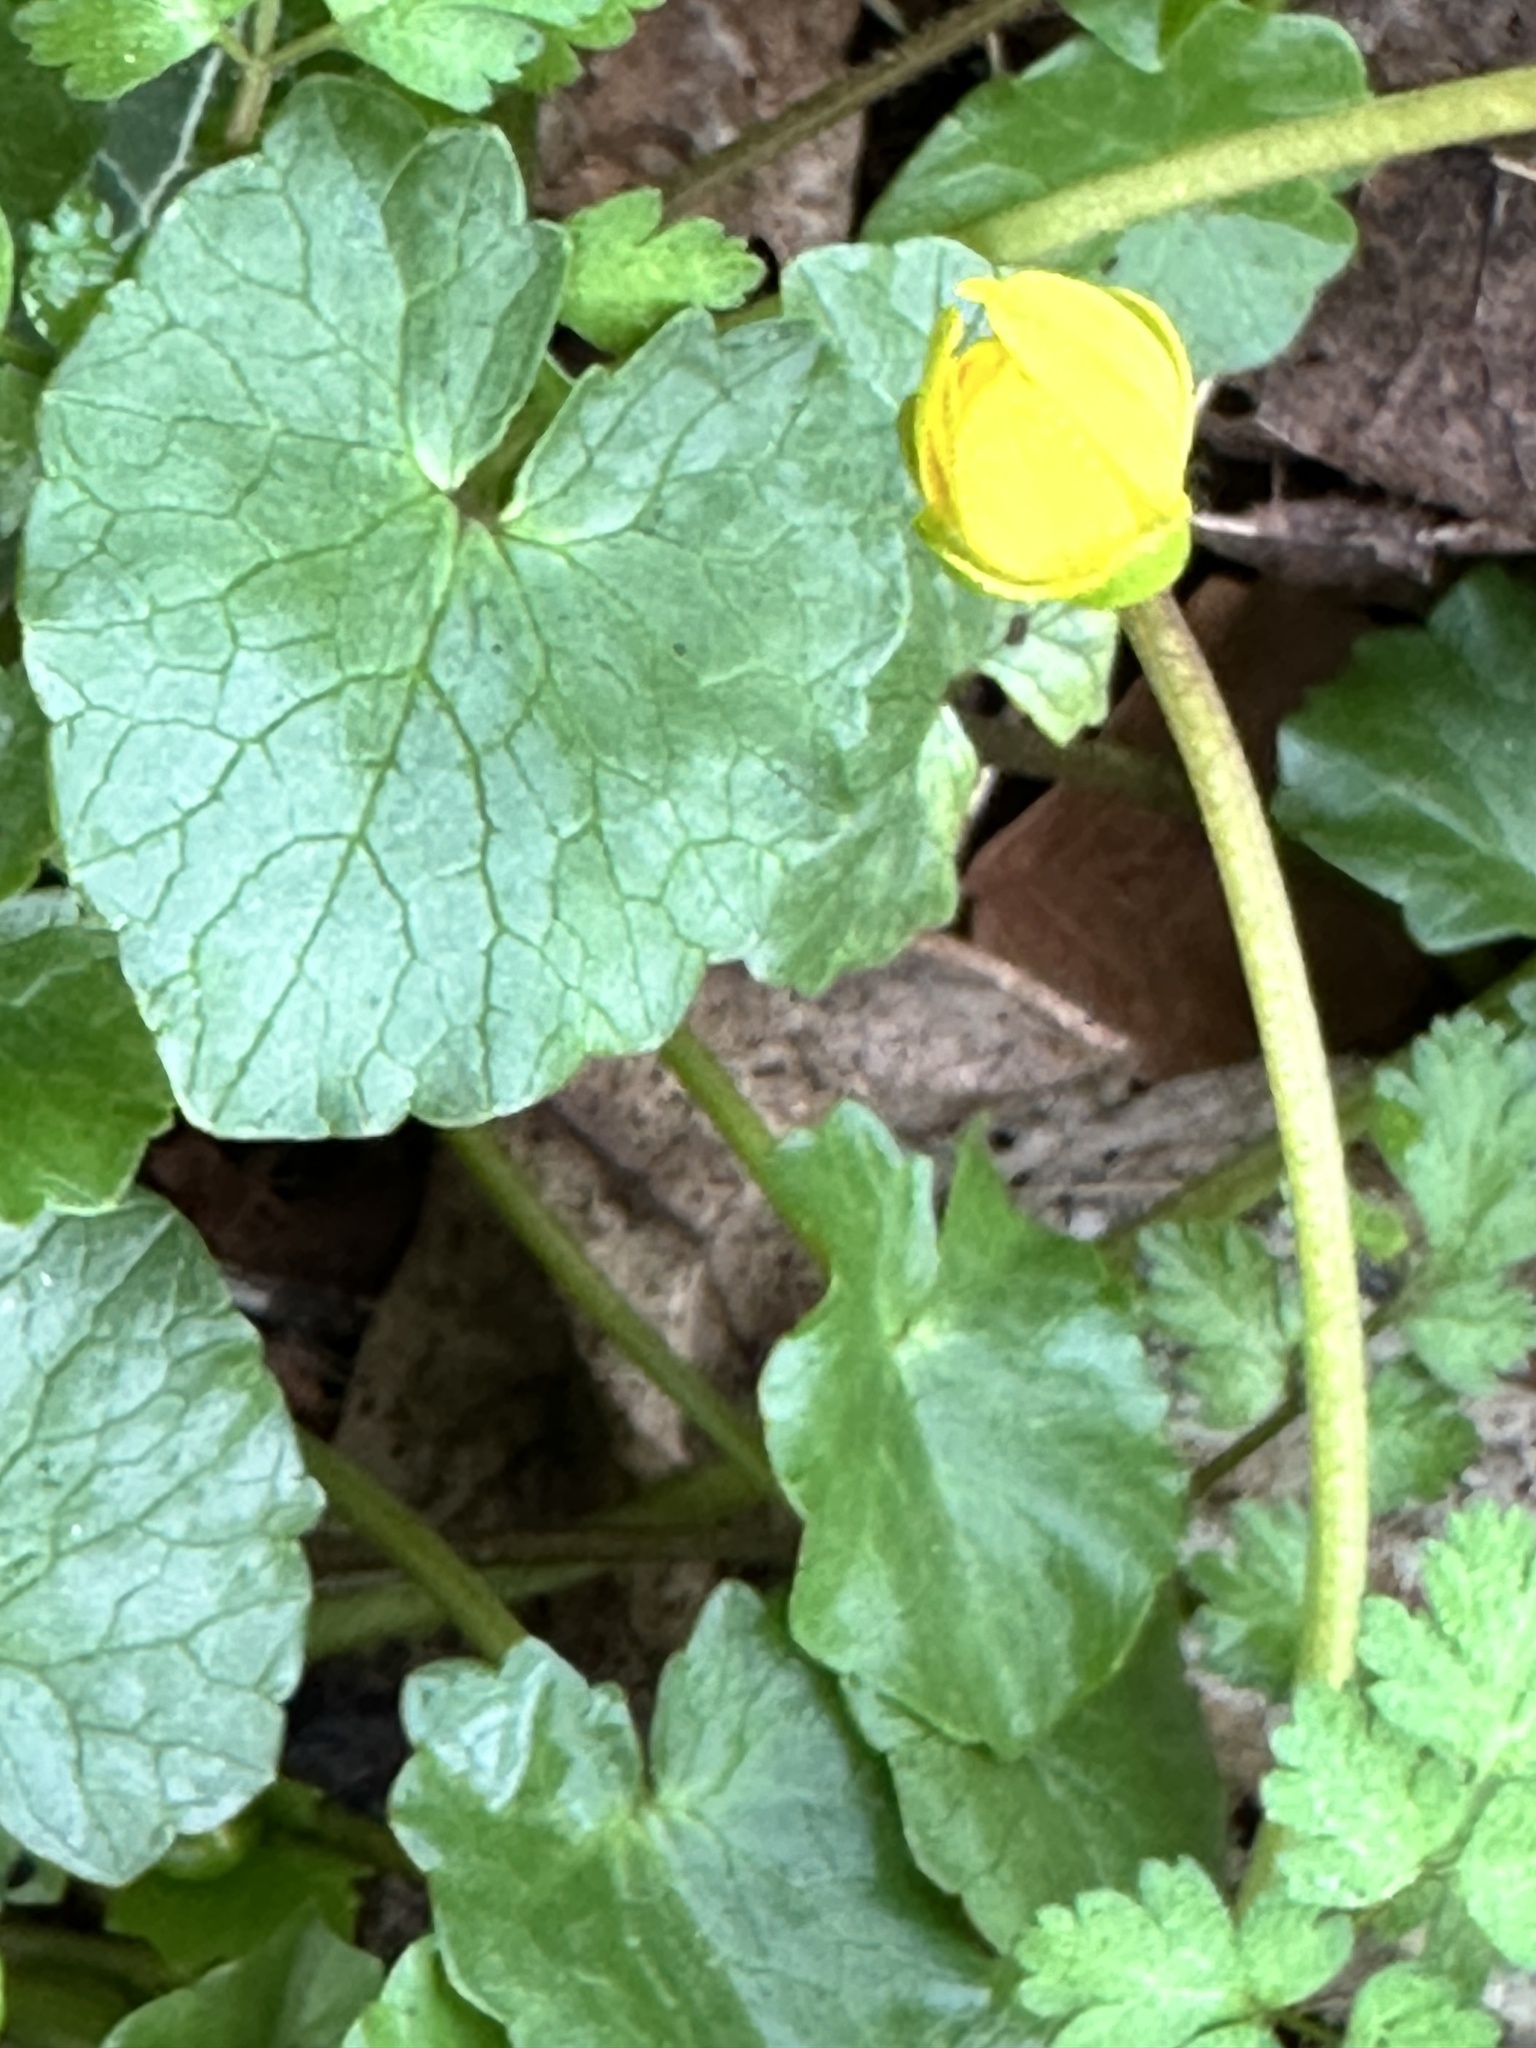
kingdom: Plantae
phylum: Tracheophyta
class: Magnoliopsida
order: Ranunculales
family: Ranunculaceae
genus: Ficaria
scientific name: Ficaria verna
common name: Lesser celandine
